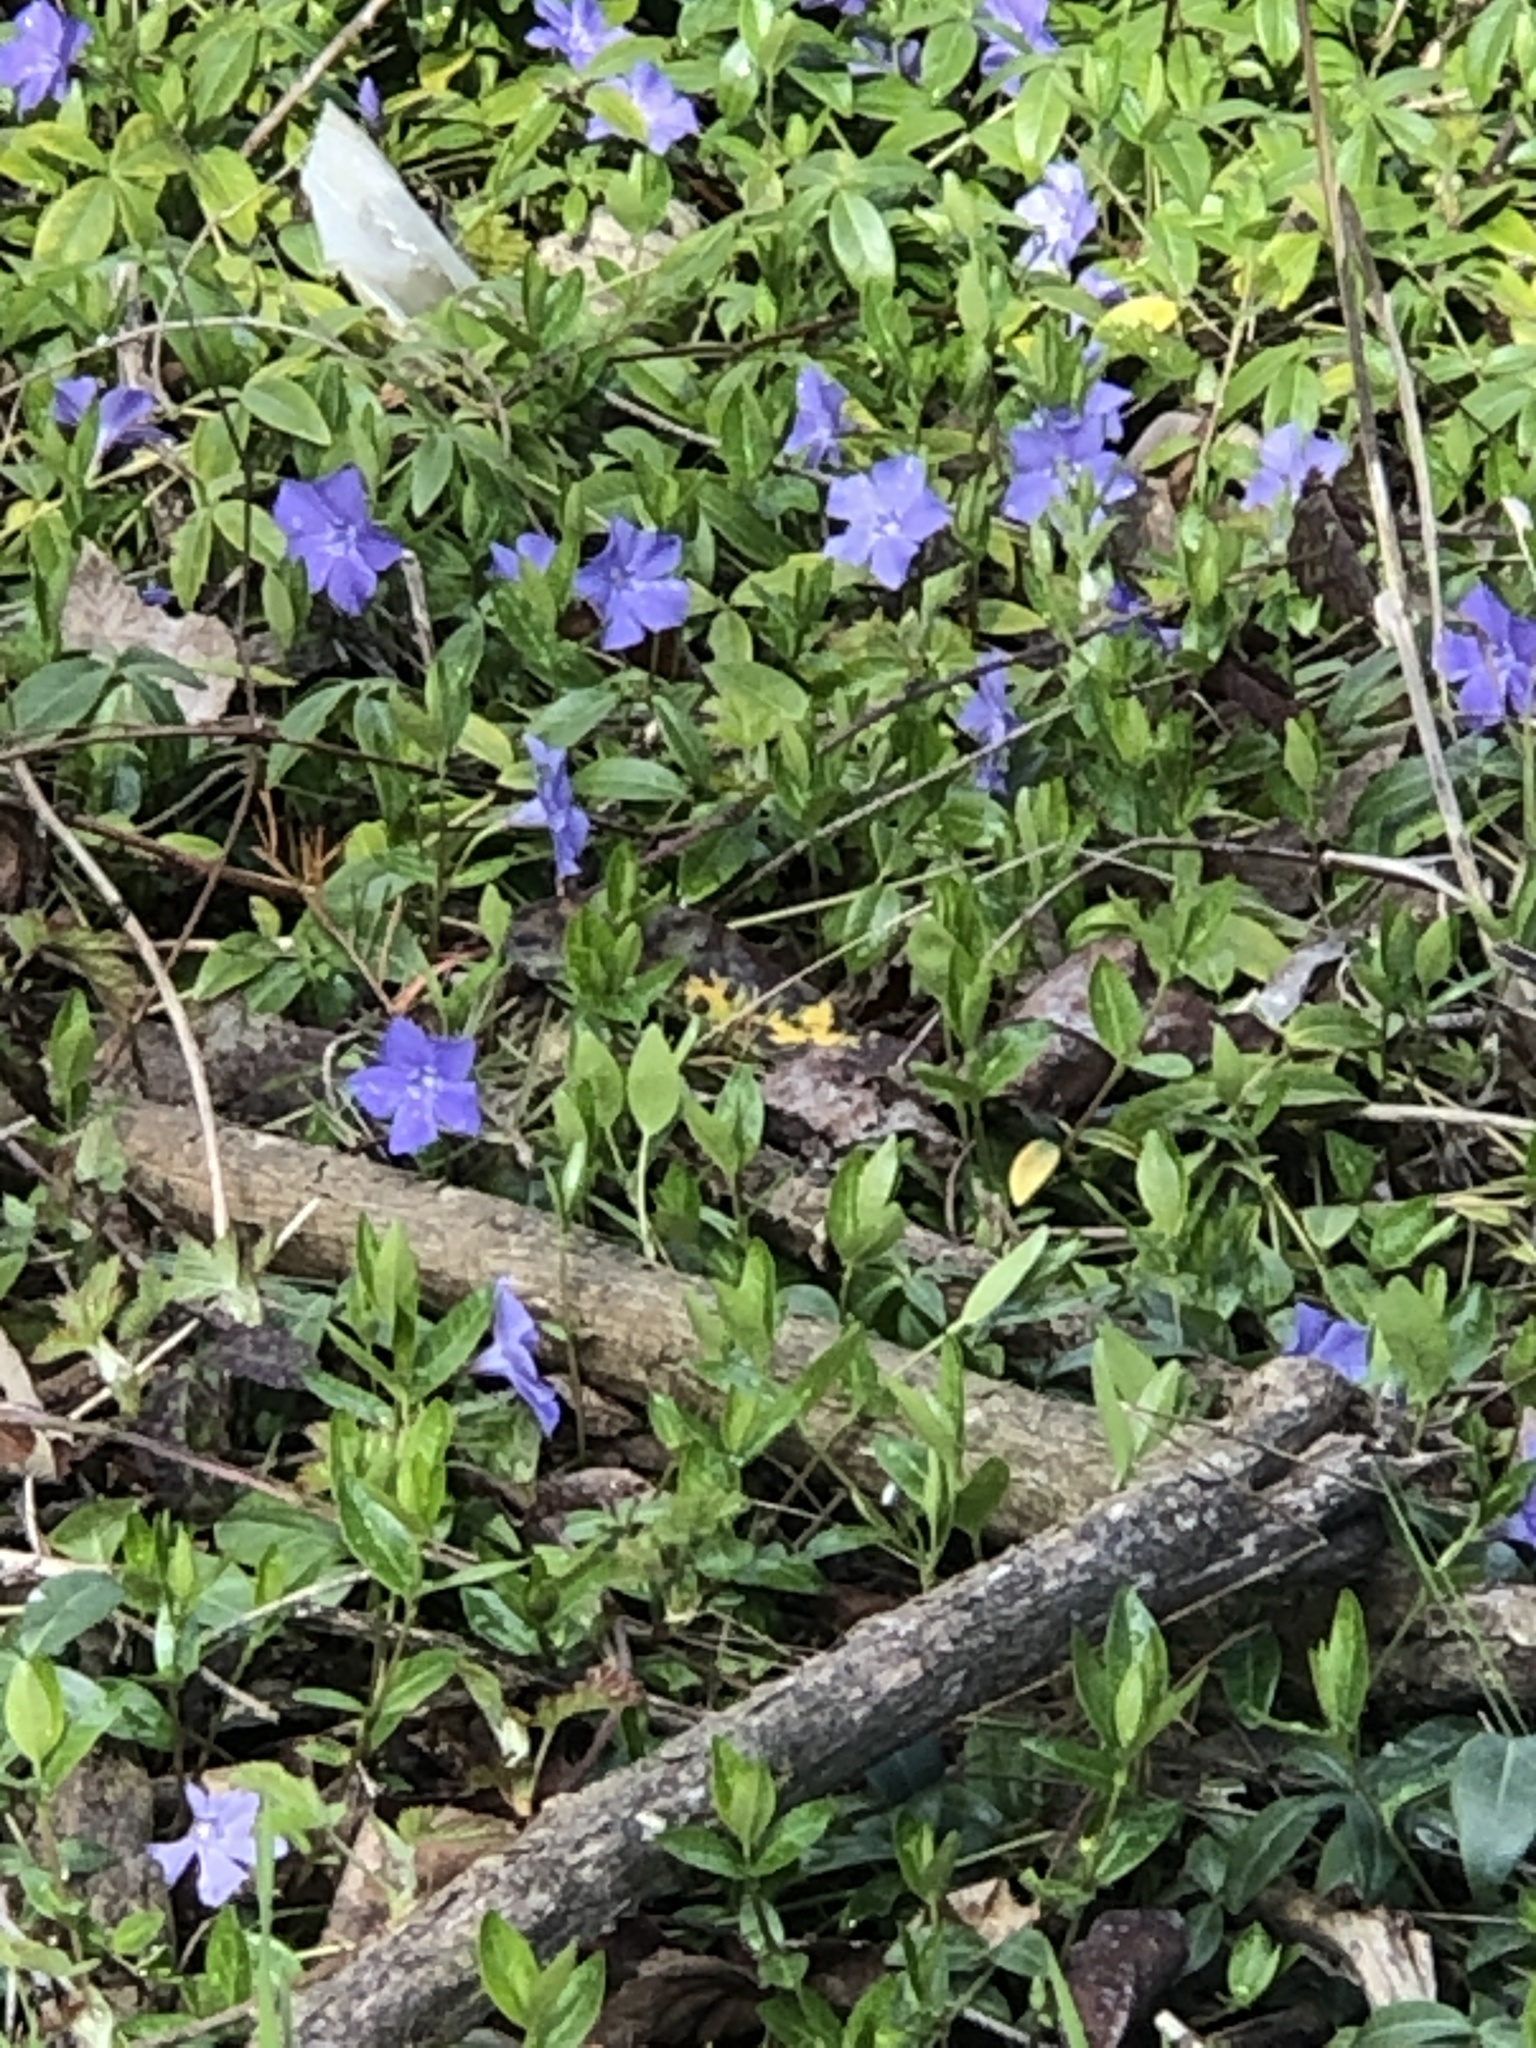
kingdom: Plantae
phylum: Tracheophyta
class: Magnoliopsida
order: Gentianales
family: Apocynaceae
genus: Vinca
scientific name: Vinca minor
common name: Lesser periwinkle
